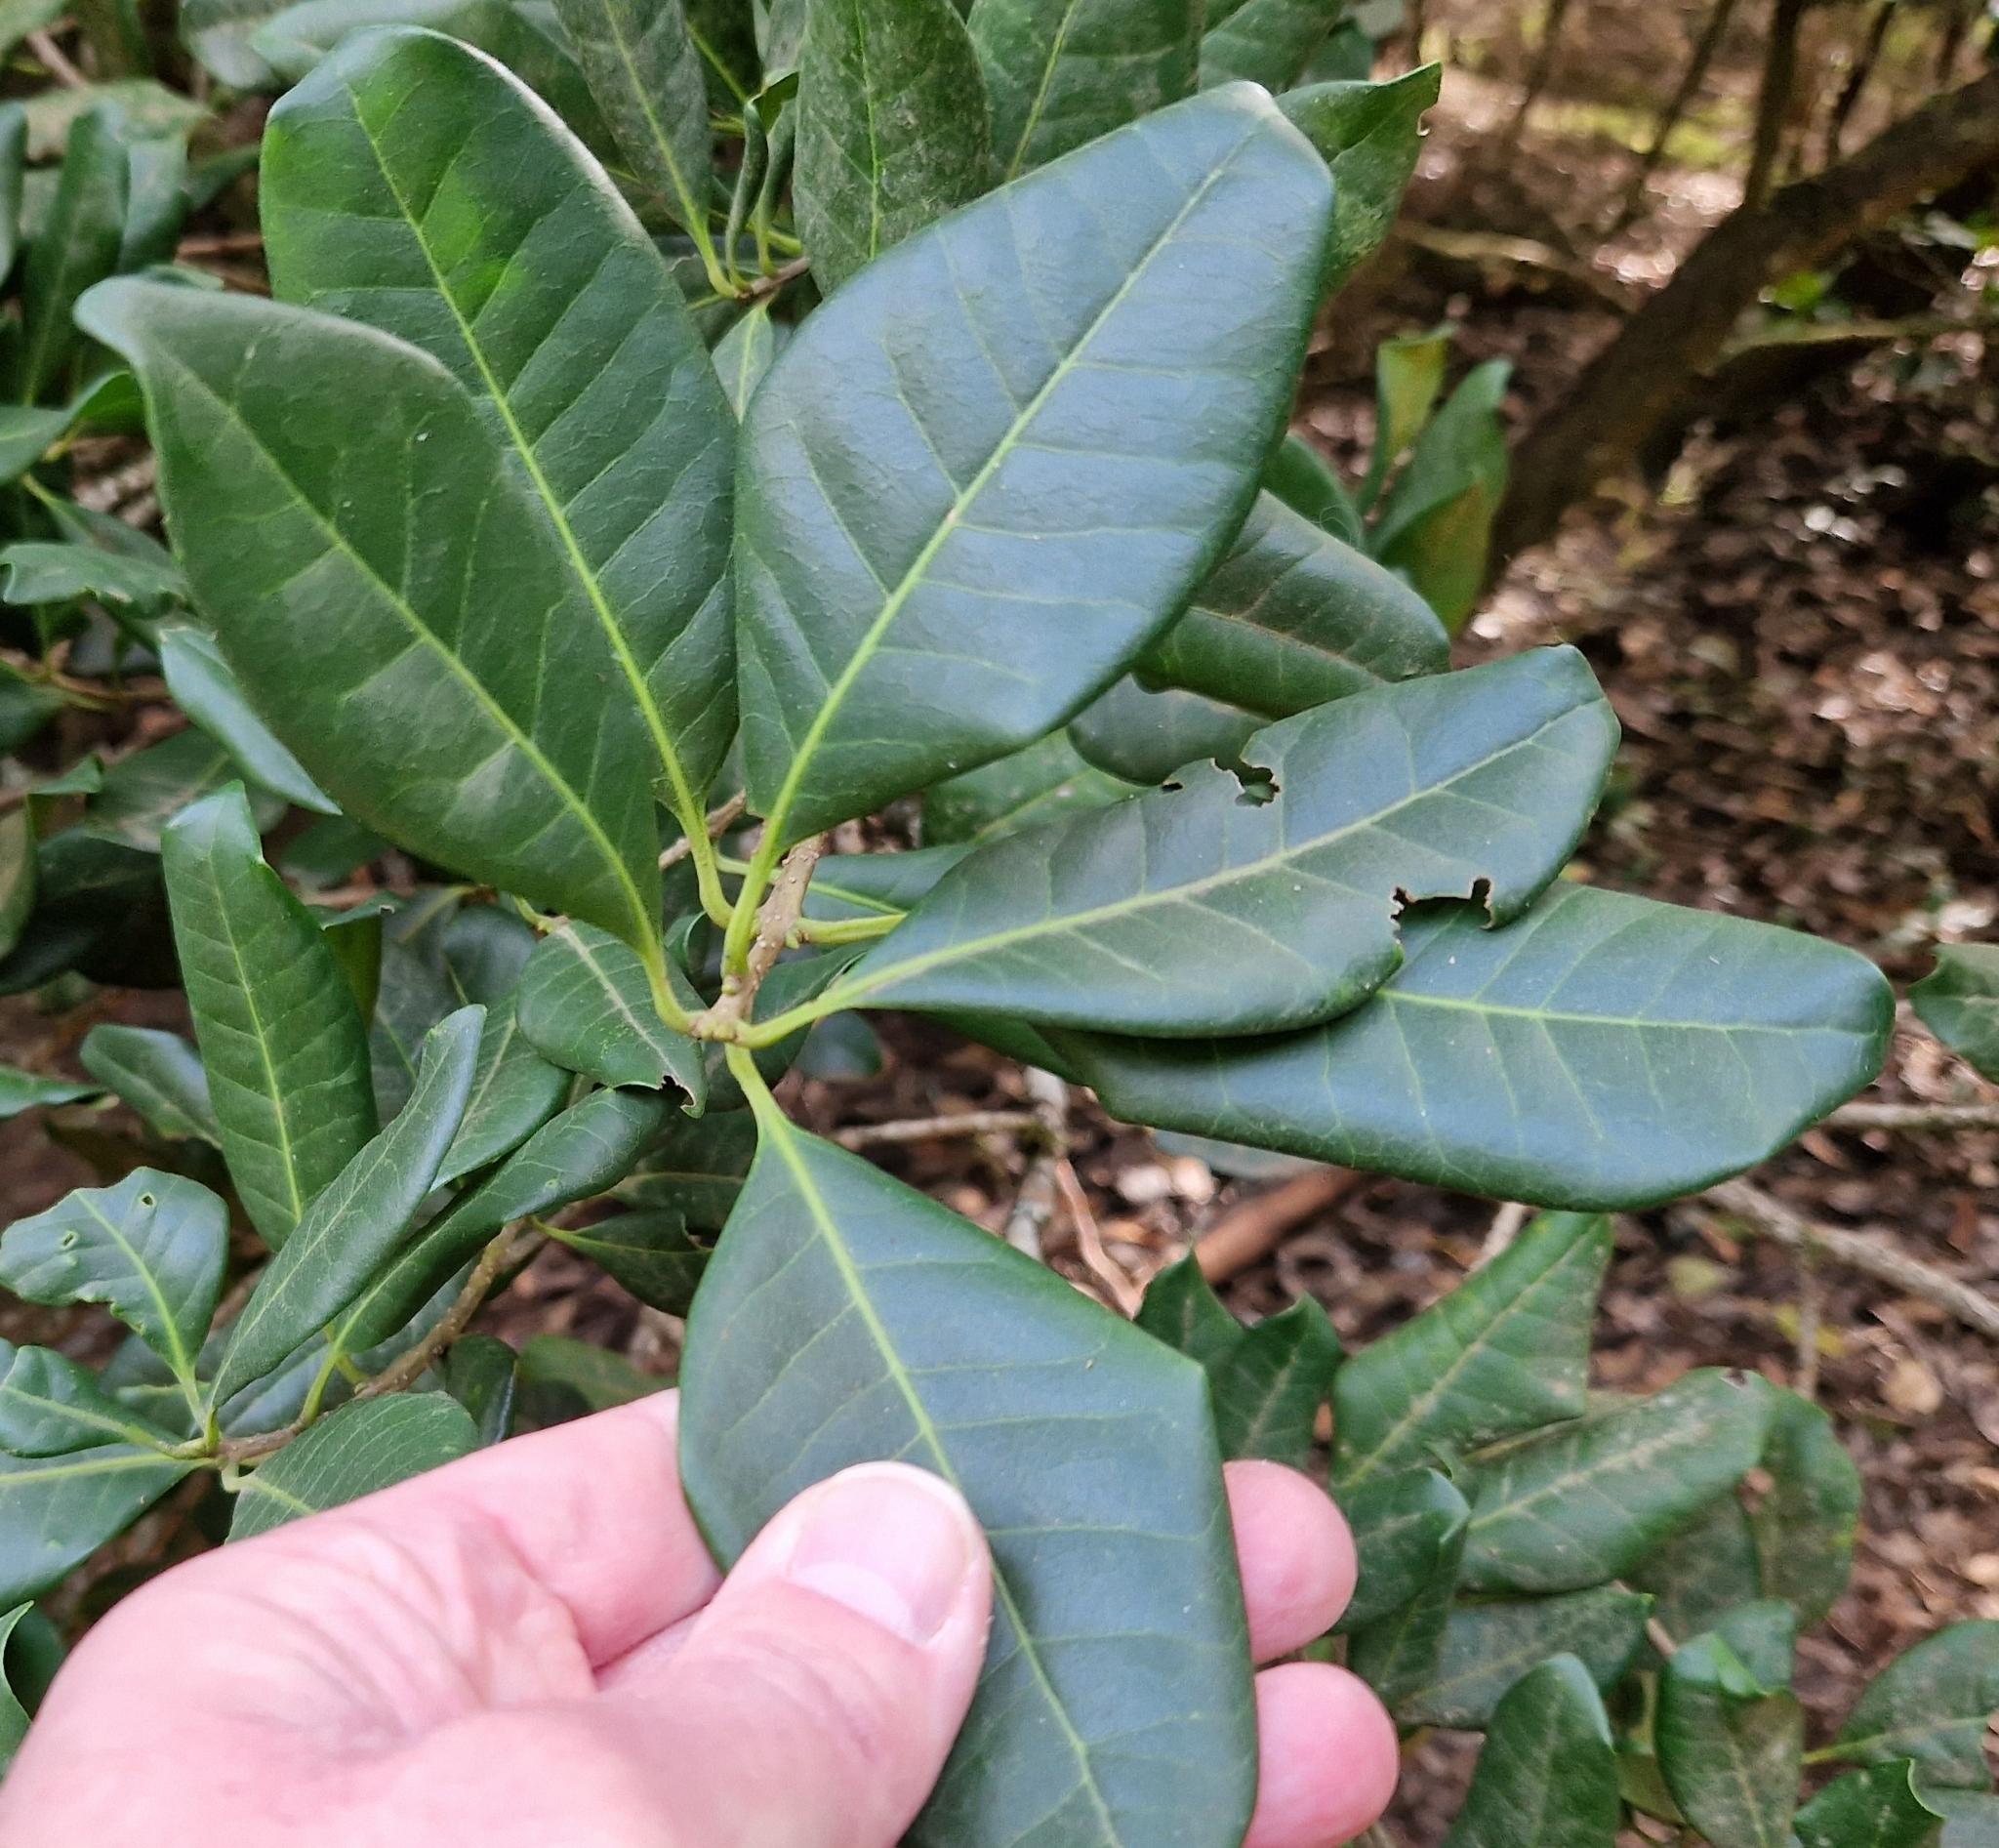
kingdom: Plantae
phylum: Tracheophyta
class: Magnoliopsida
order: Lamiales
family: Oleaceae
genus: Picconia
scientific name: Picconia excelsa
